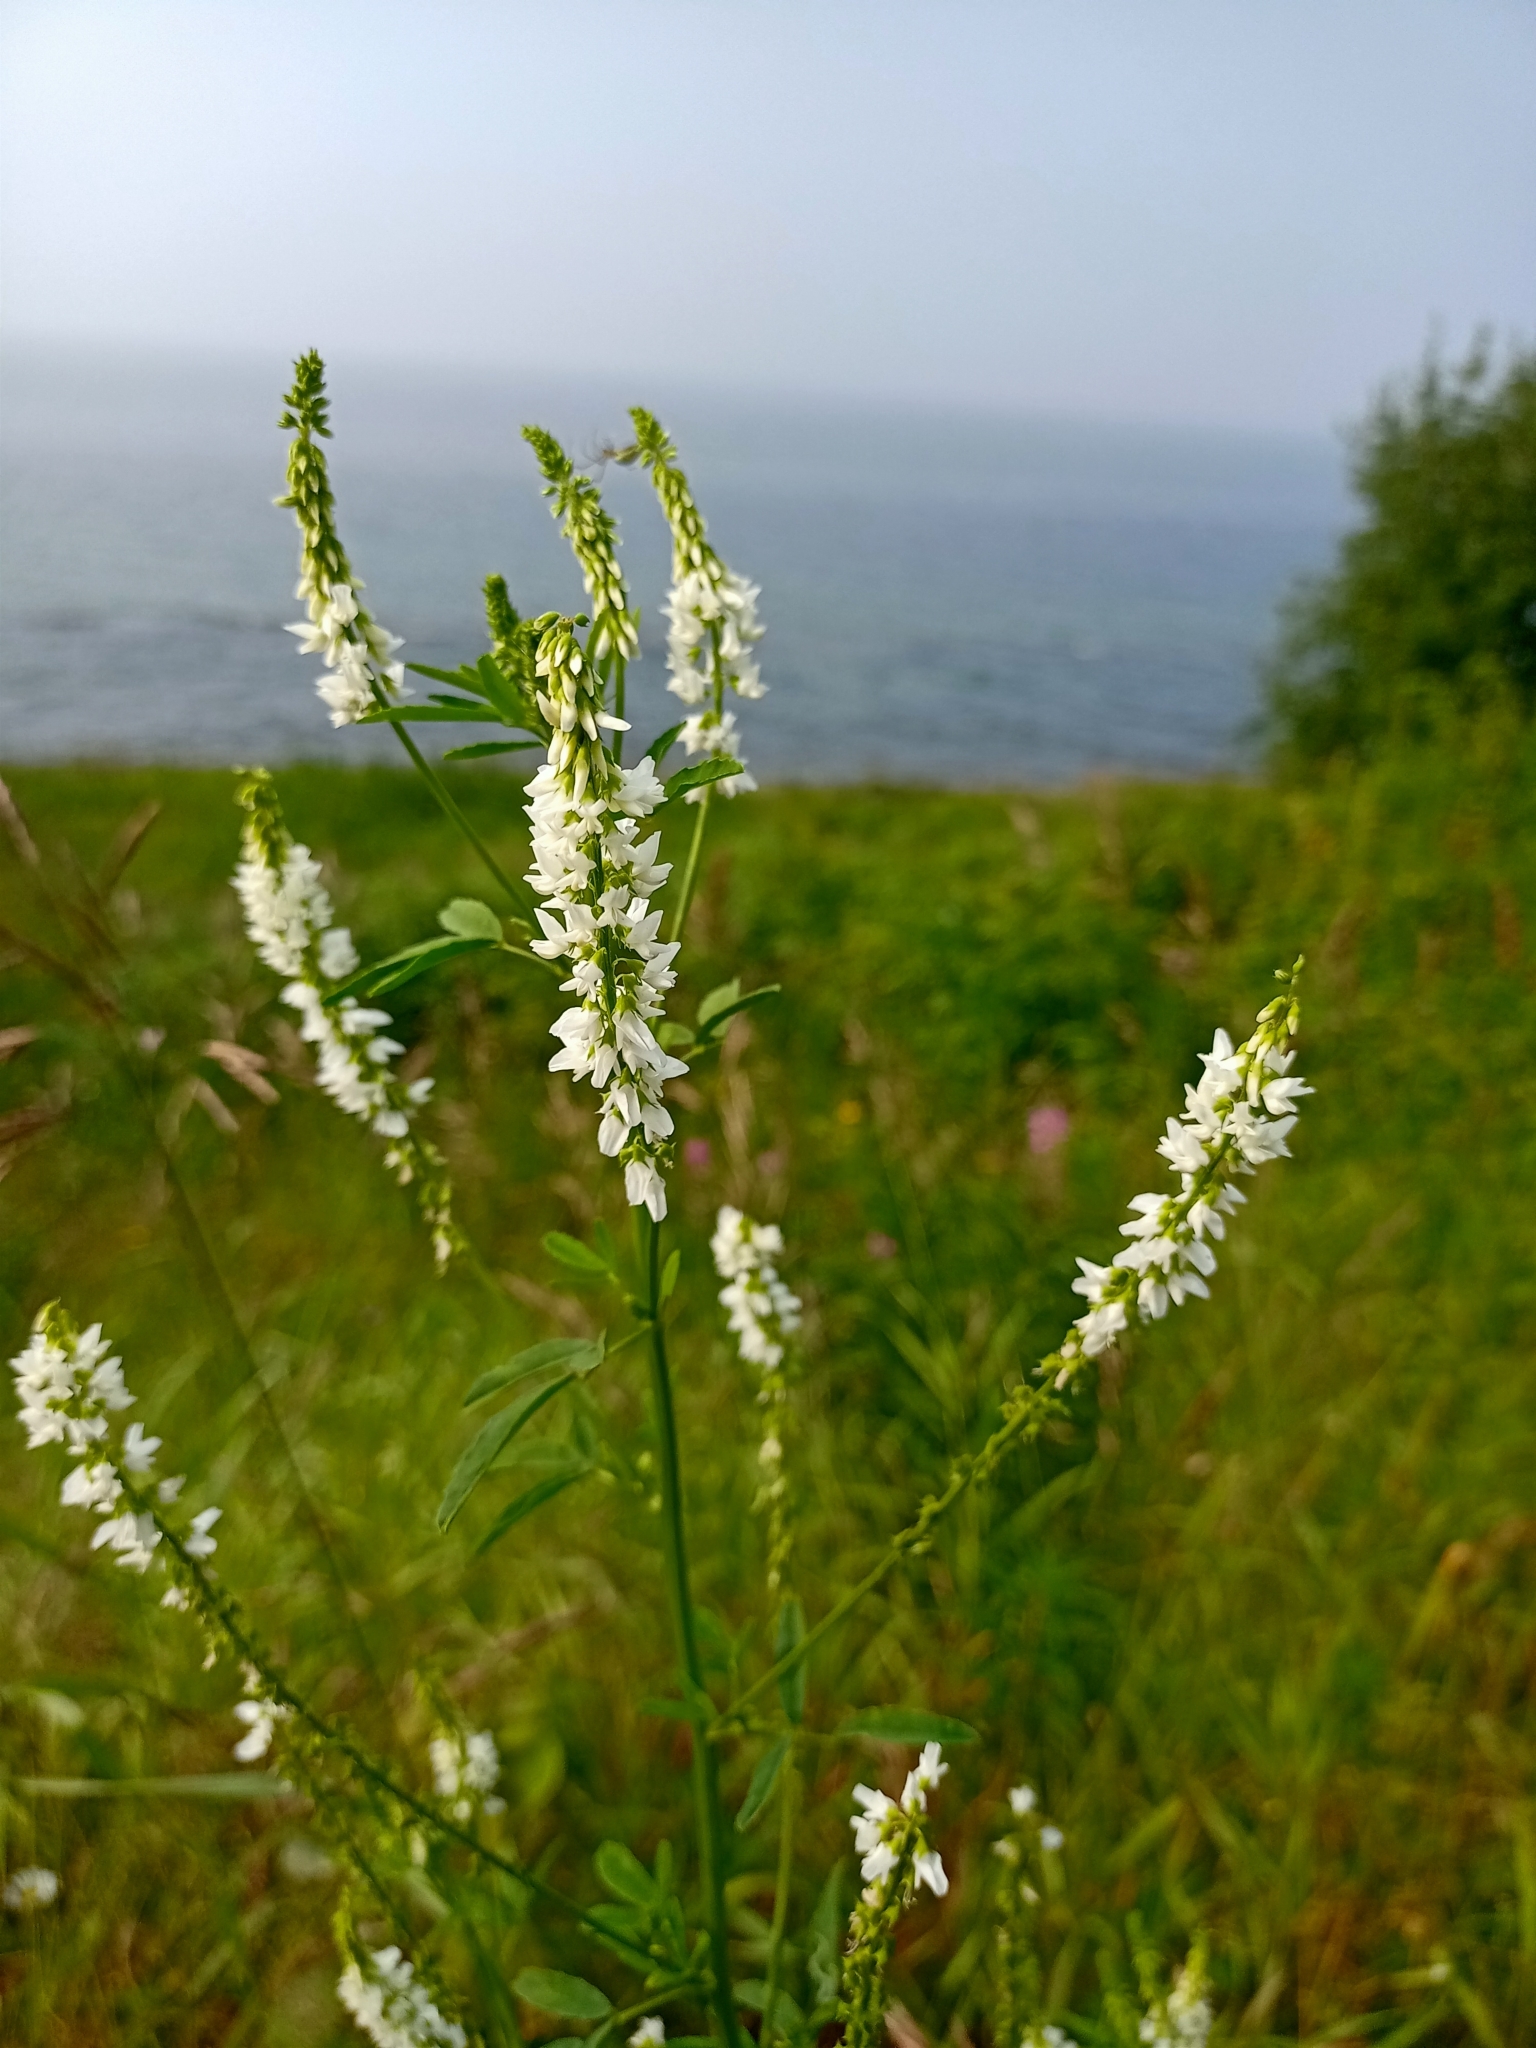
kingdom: Plantae
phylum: Tracheophyta
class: Magnoliopsida
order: Fabales
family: Fabaceae
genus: Melilotus
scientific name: Melilotus albus
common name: White melilot
